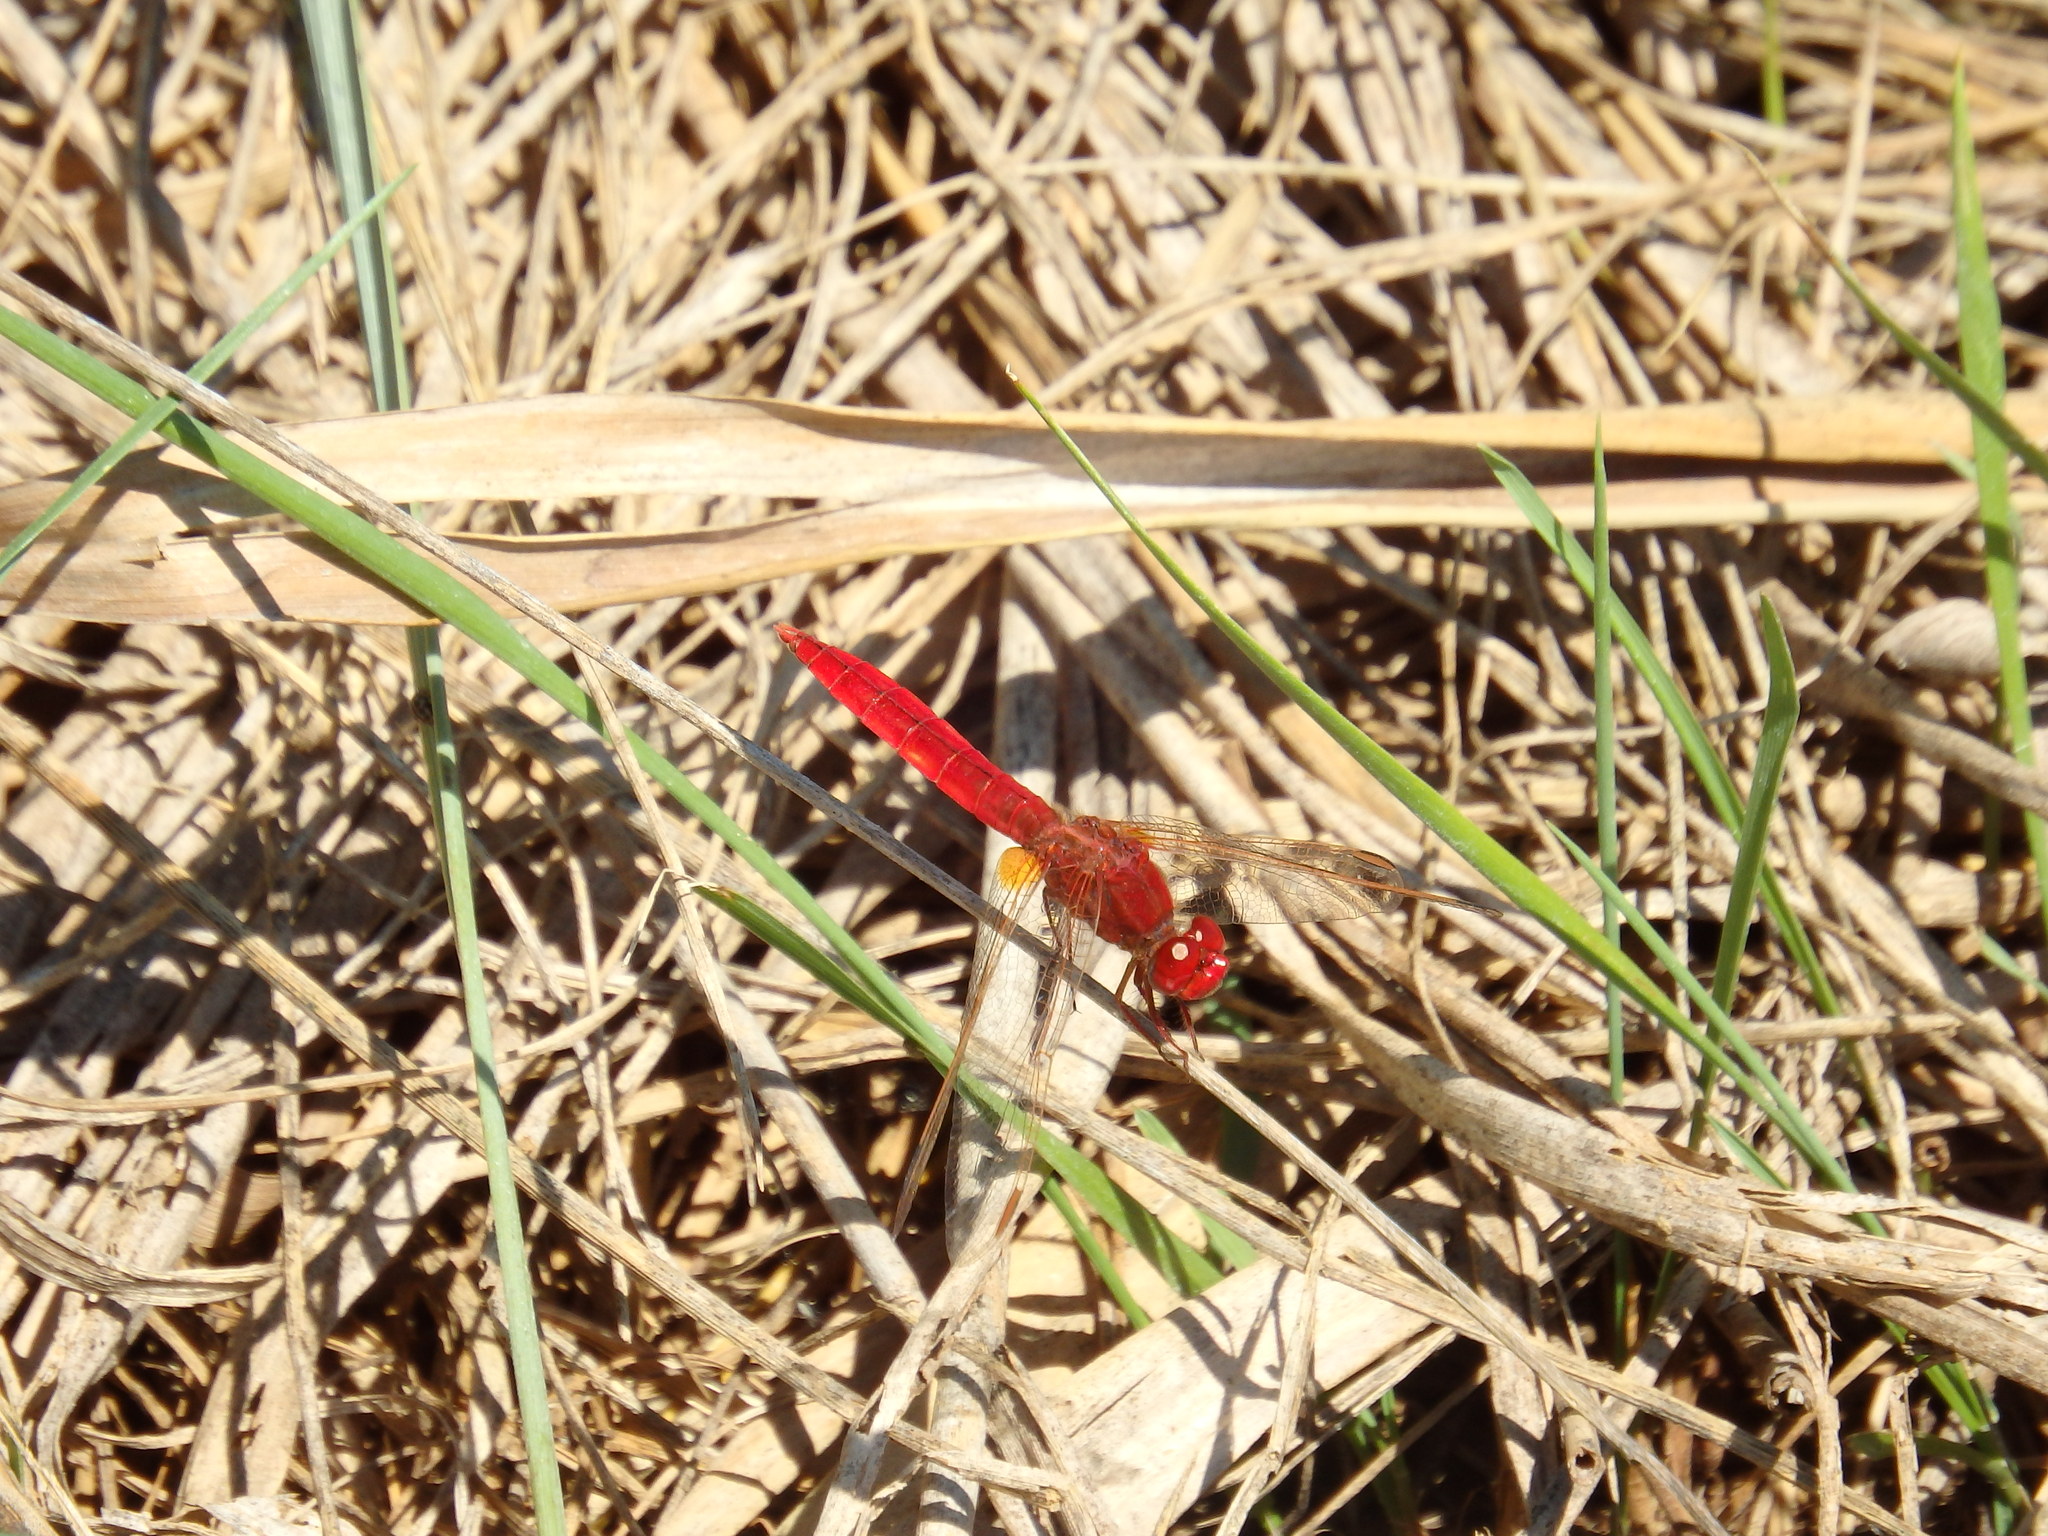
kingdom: Animalia
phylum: Arthropoda
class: Insecta
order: Odonata
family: Libellulidae
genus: Crocothemis
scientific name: Crocothemis erythraea
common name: Scarlet dragonfly
